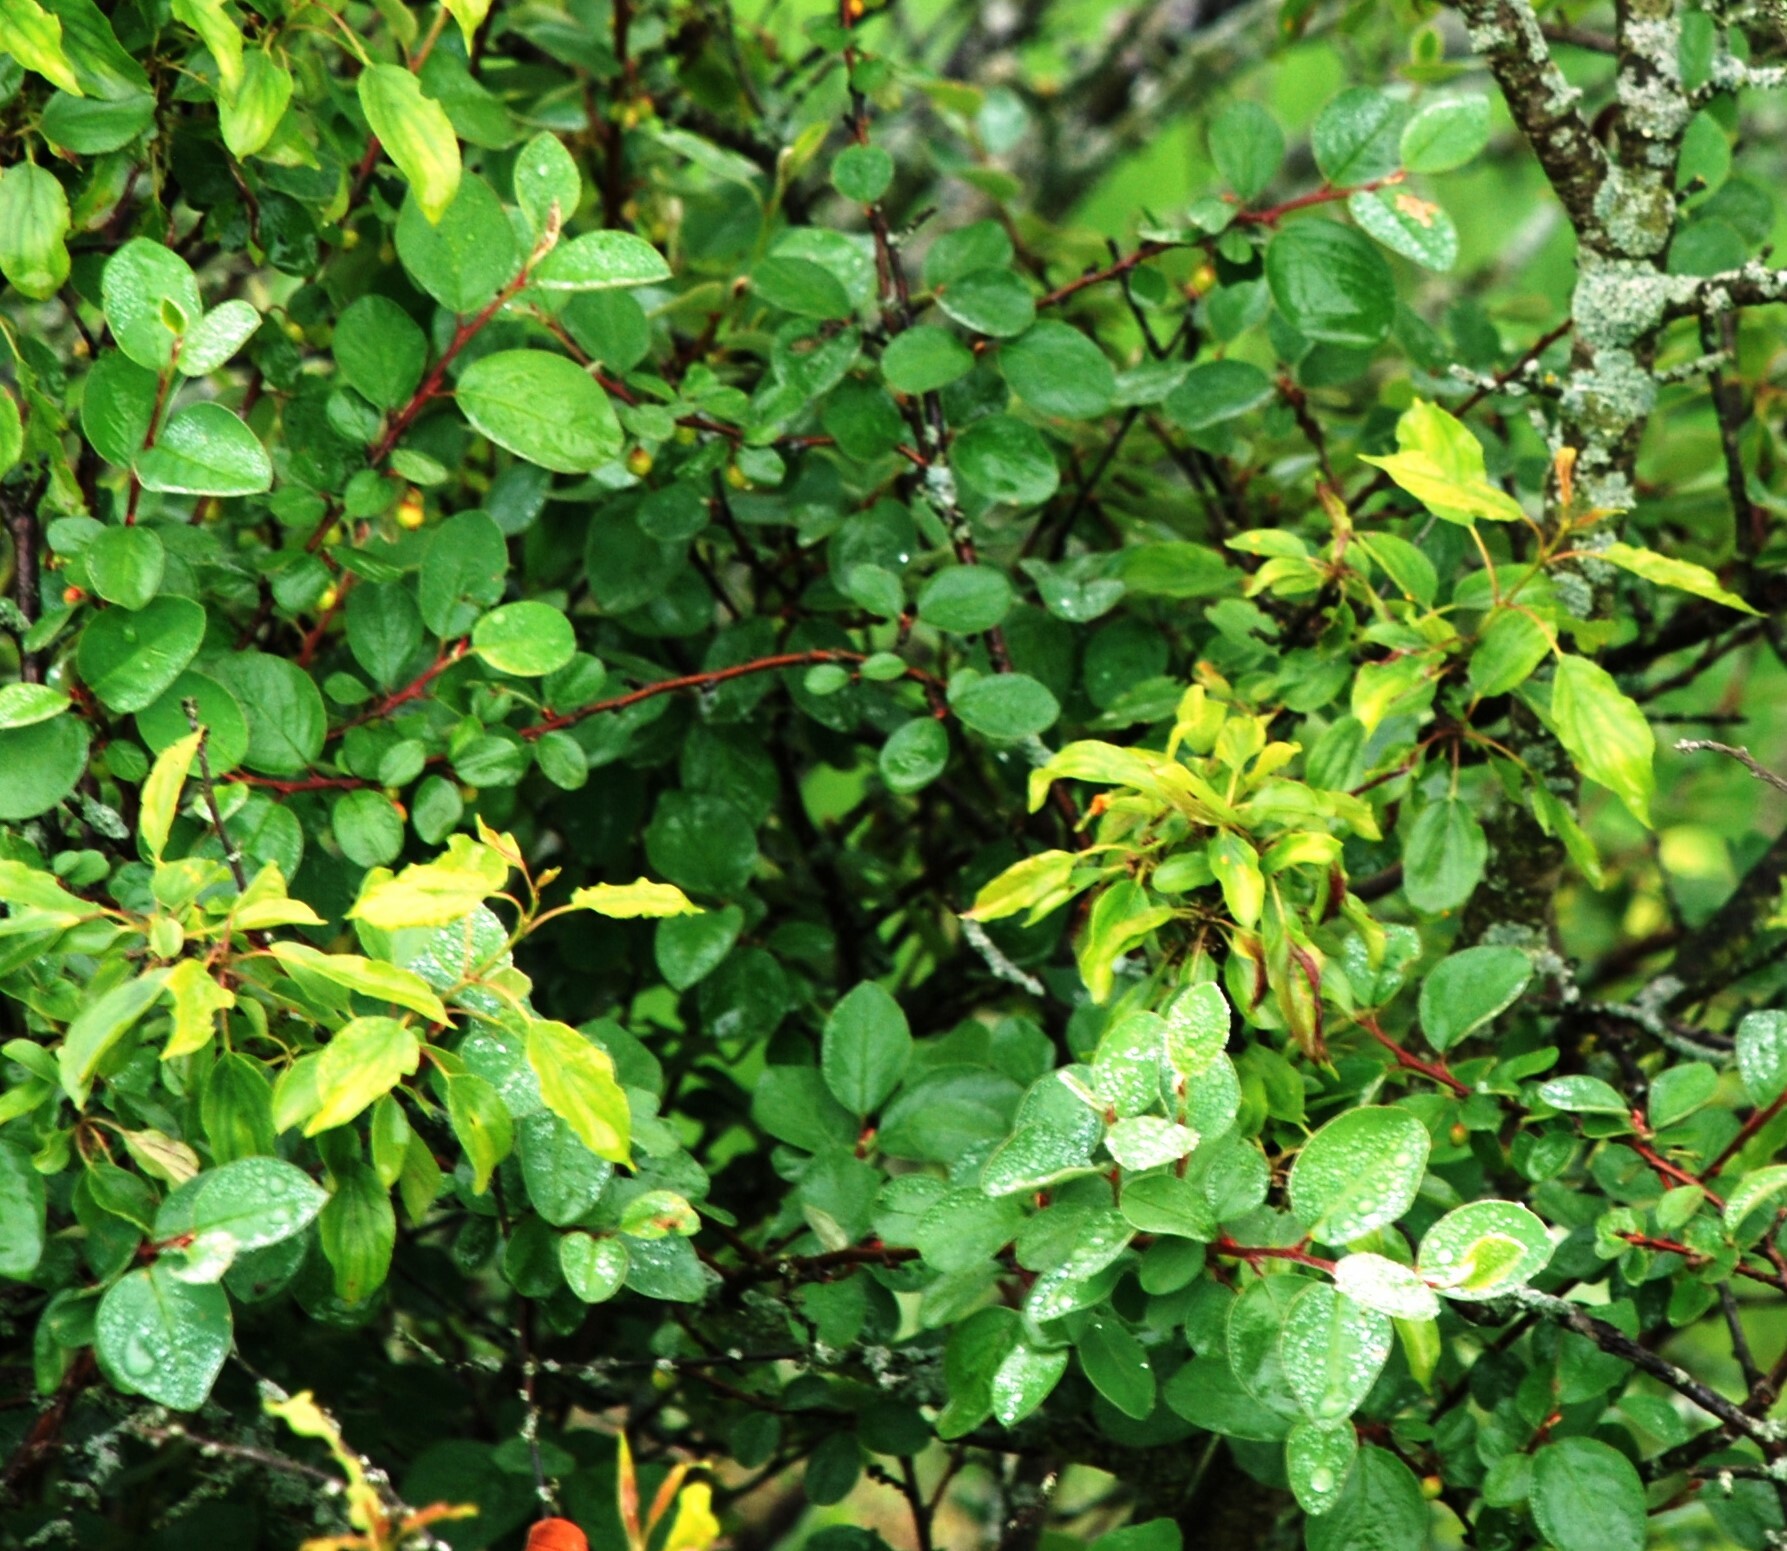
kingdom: Plantae
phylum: Tracheophyta
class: Magnoliopsida
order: Rosales
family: Rosaceae
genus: Cotoneaster
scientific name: Cotoneaster alaunicus
